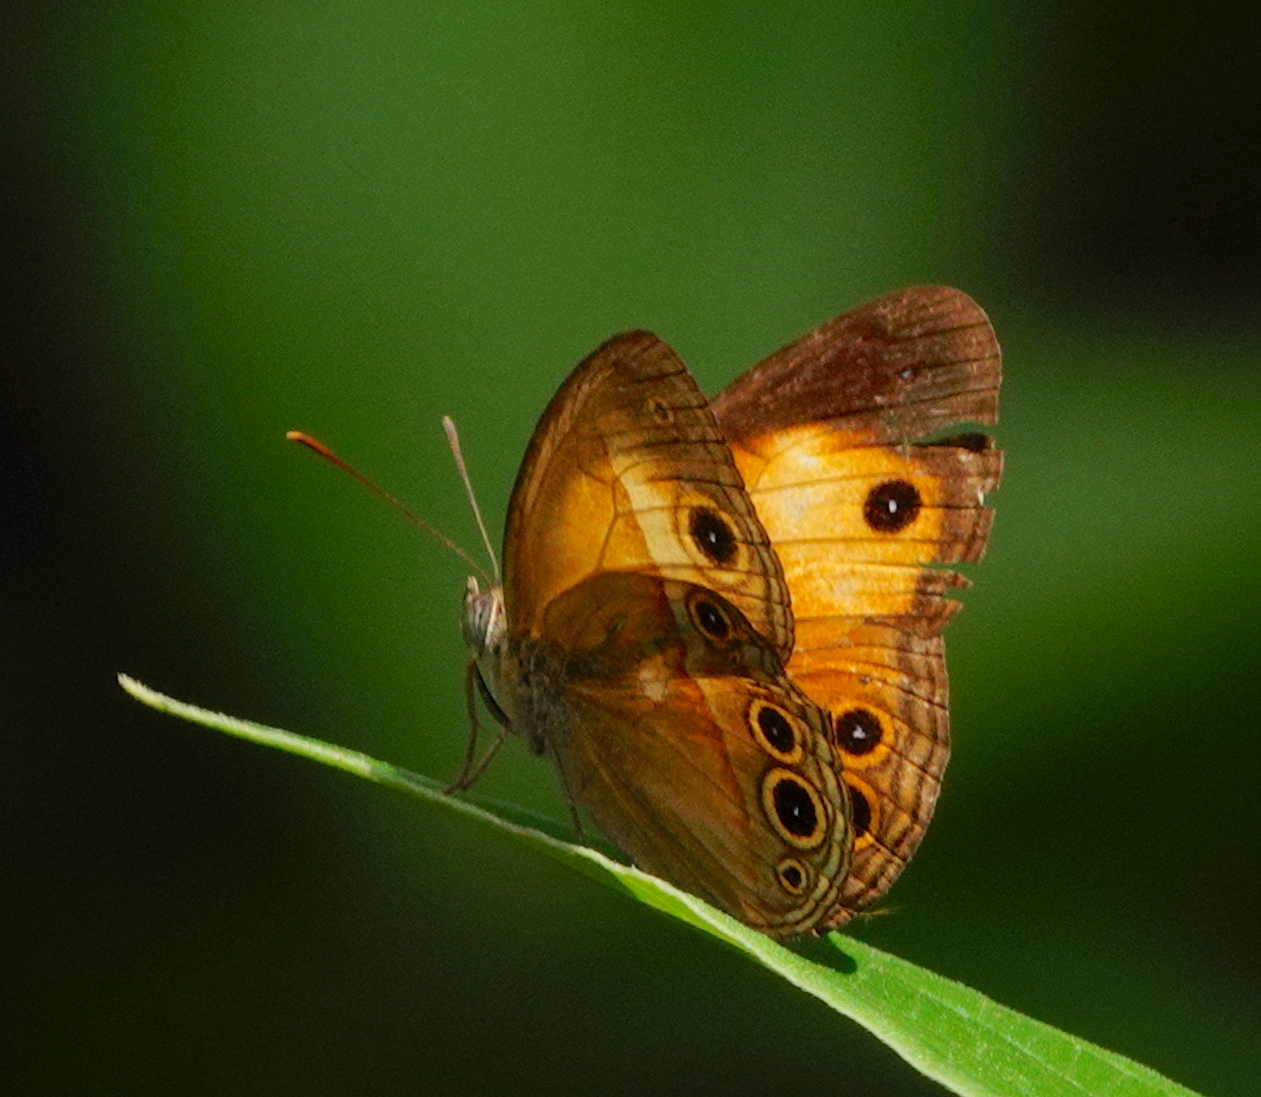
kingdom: Animalia
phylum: Arthropoda
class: Insecta
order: Lepidoptera
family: Nymphalidae
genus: Mycalesis
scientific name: Mycalesis terminus
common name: Orange bushbrown
